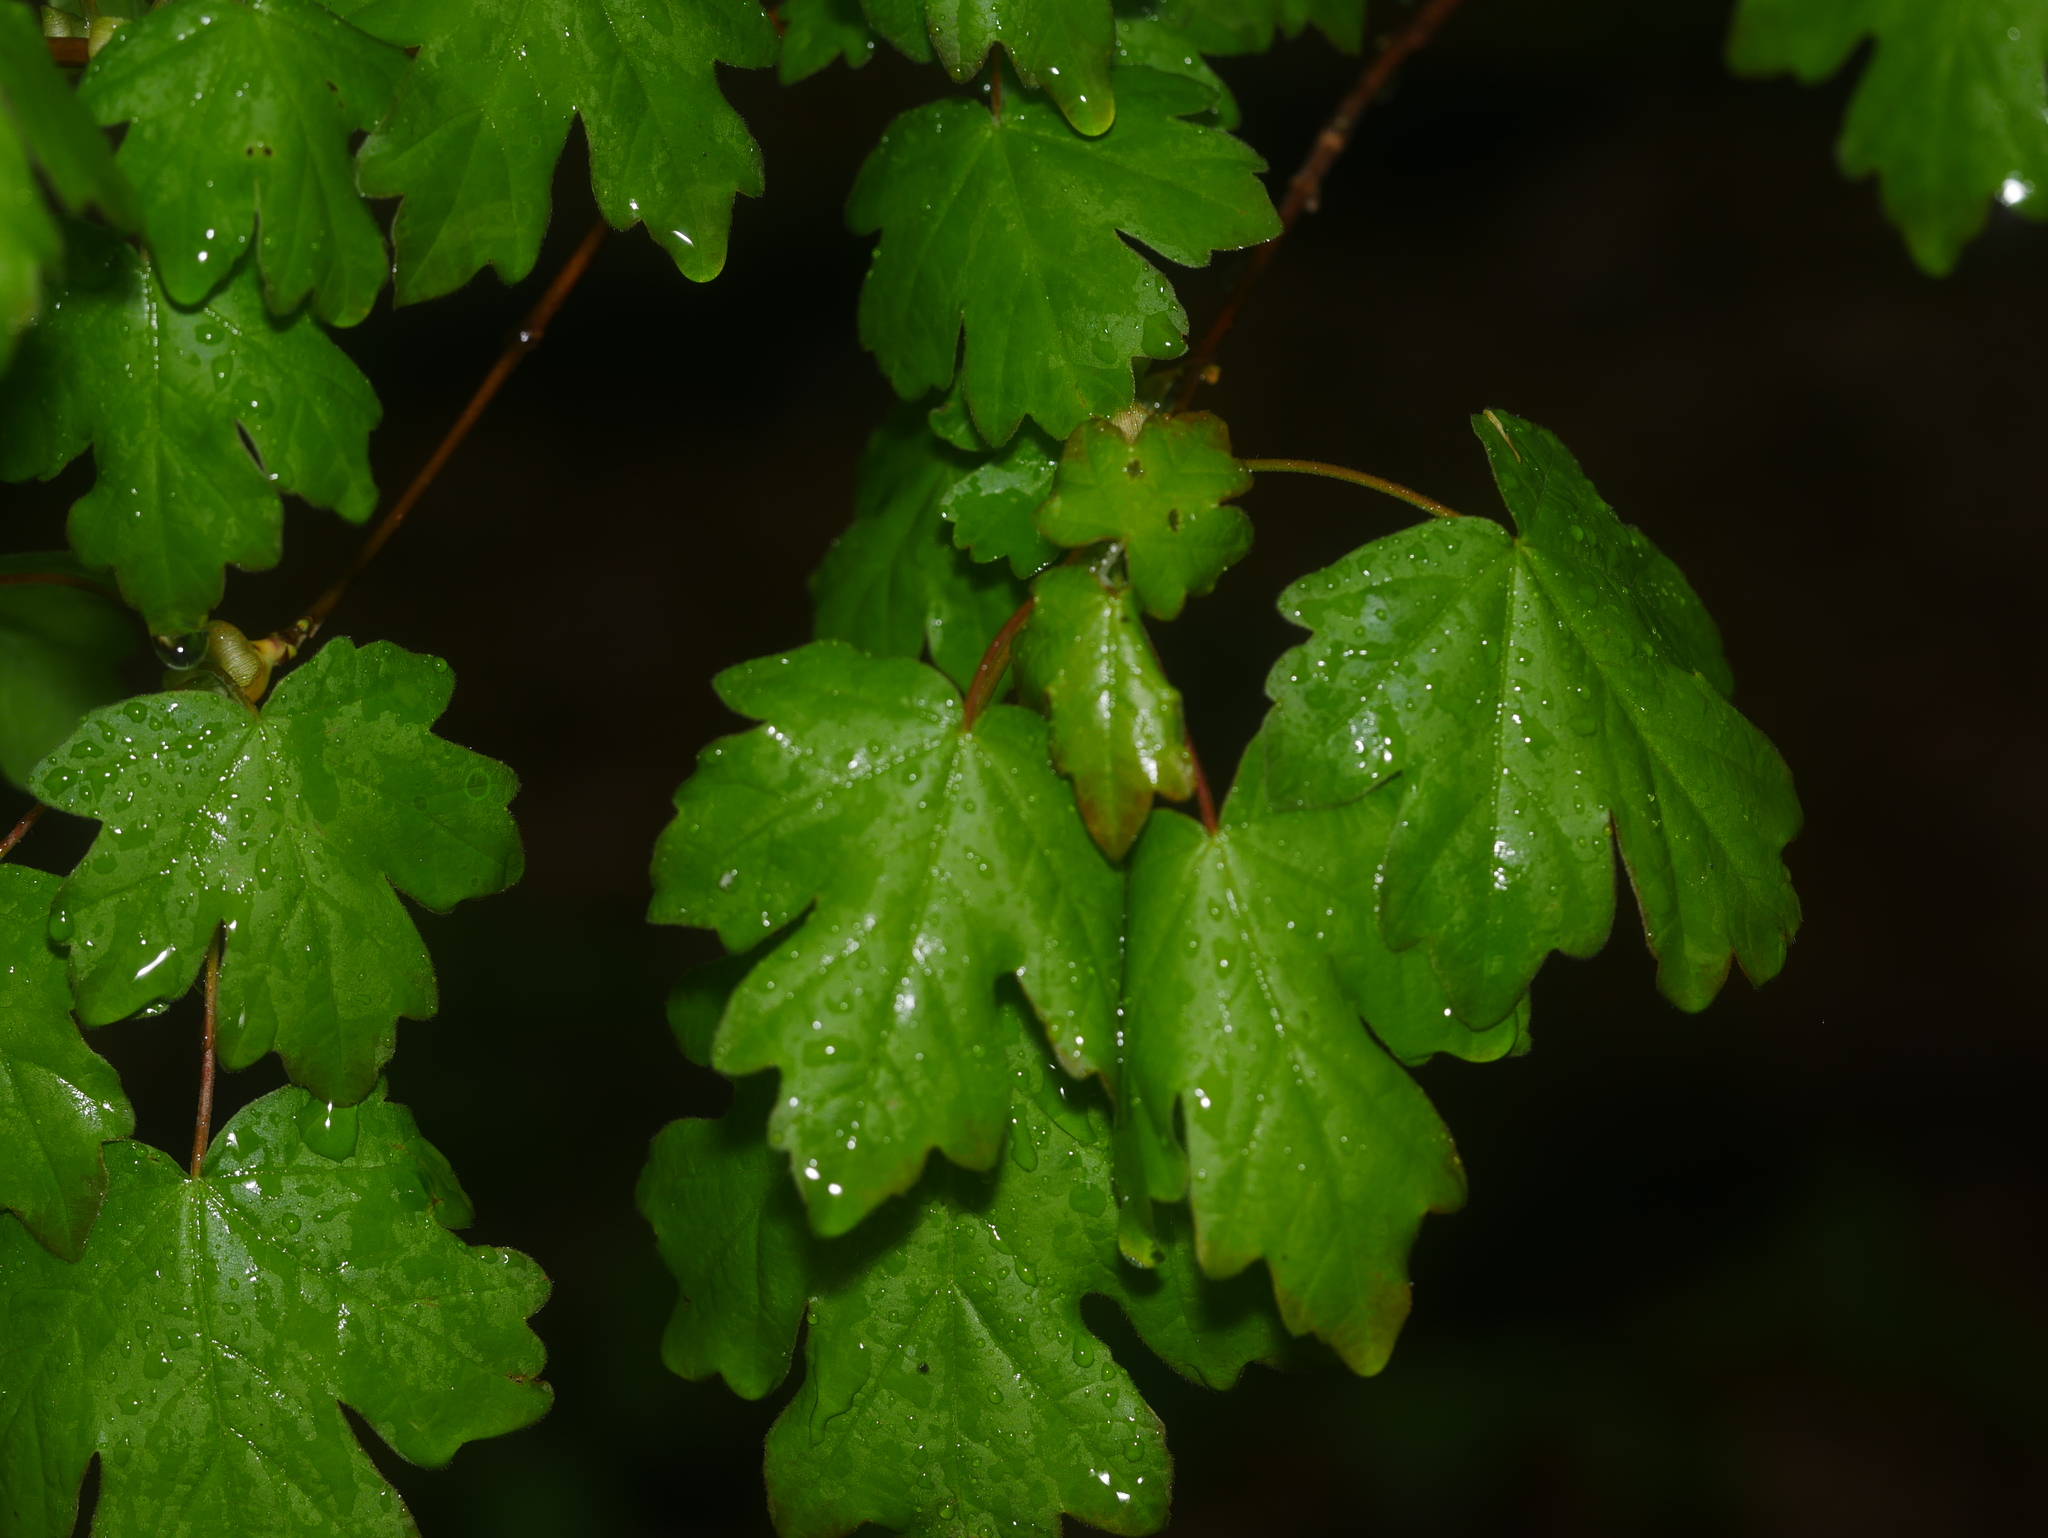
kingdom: Plantae
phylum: Tracheophyta
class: Magnoliopsida
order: Sapindales
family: Sapindaceae
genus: Acer
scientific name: Acer campestre
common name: Field maple
